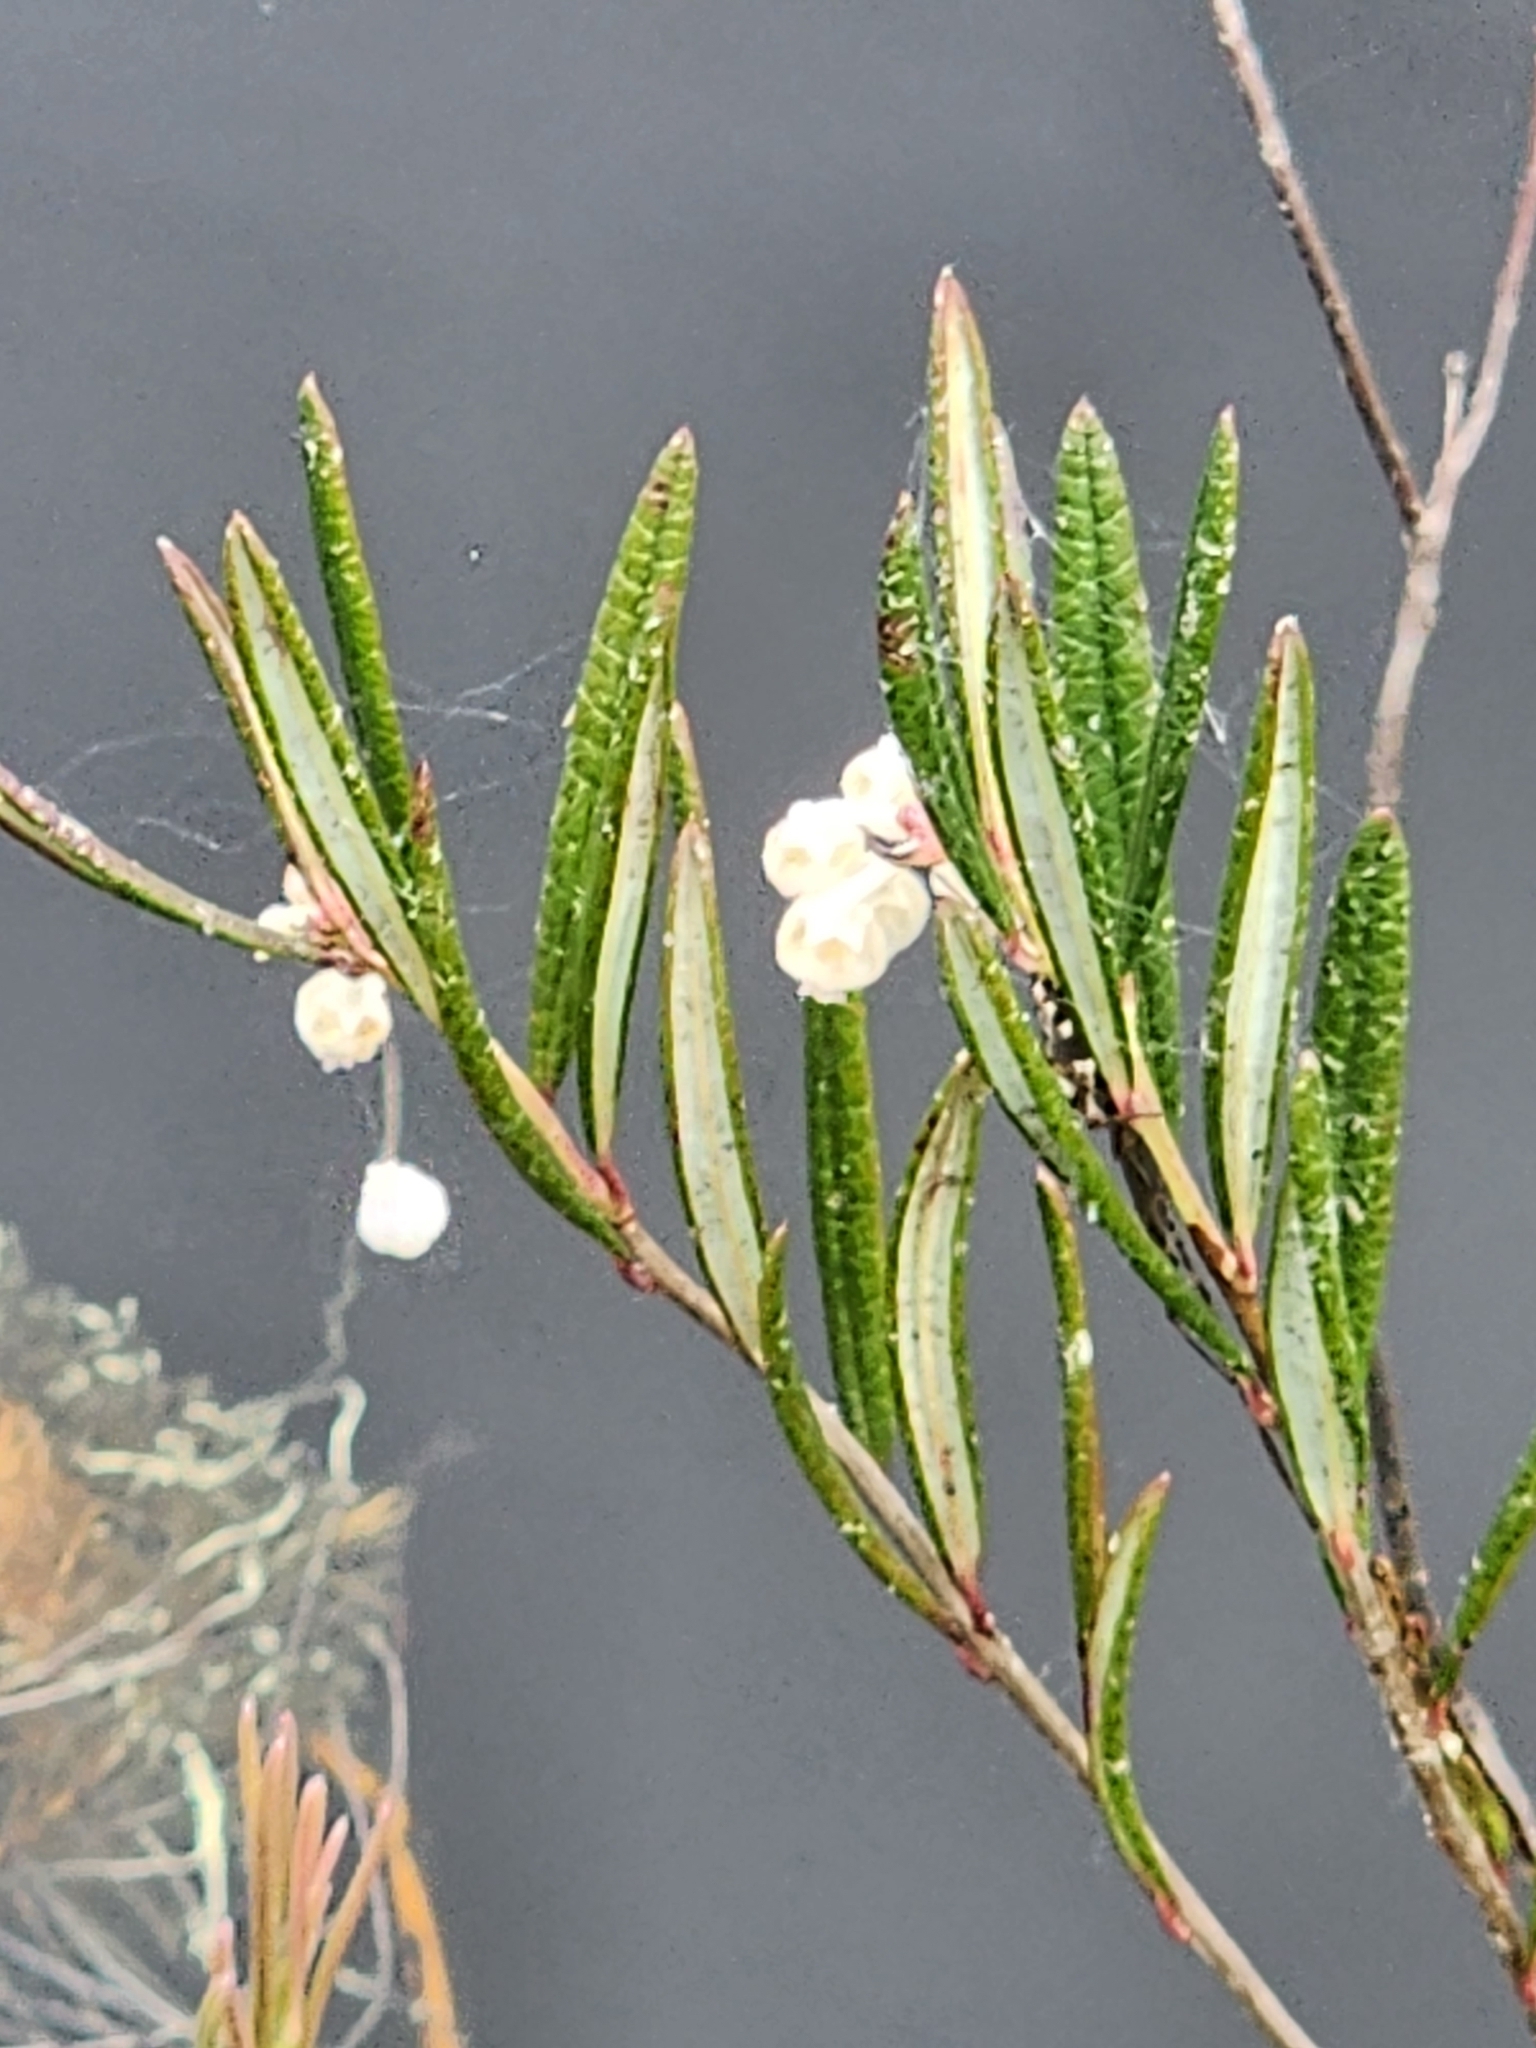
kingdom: Plantae
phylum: Tracheophyta
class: Magnoliopsida
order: Ericales
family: Ericaceae
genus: Andromeda
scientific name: Andromeda polifolia
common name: Bog-rosemary
